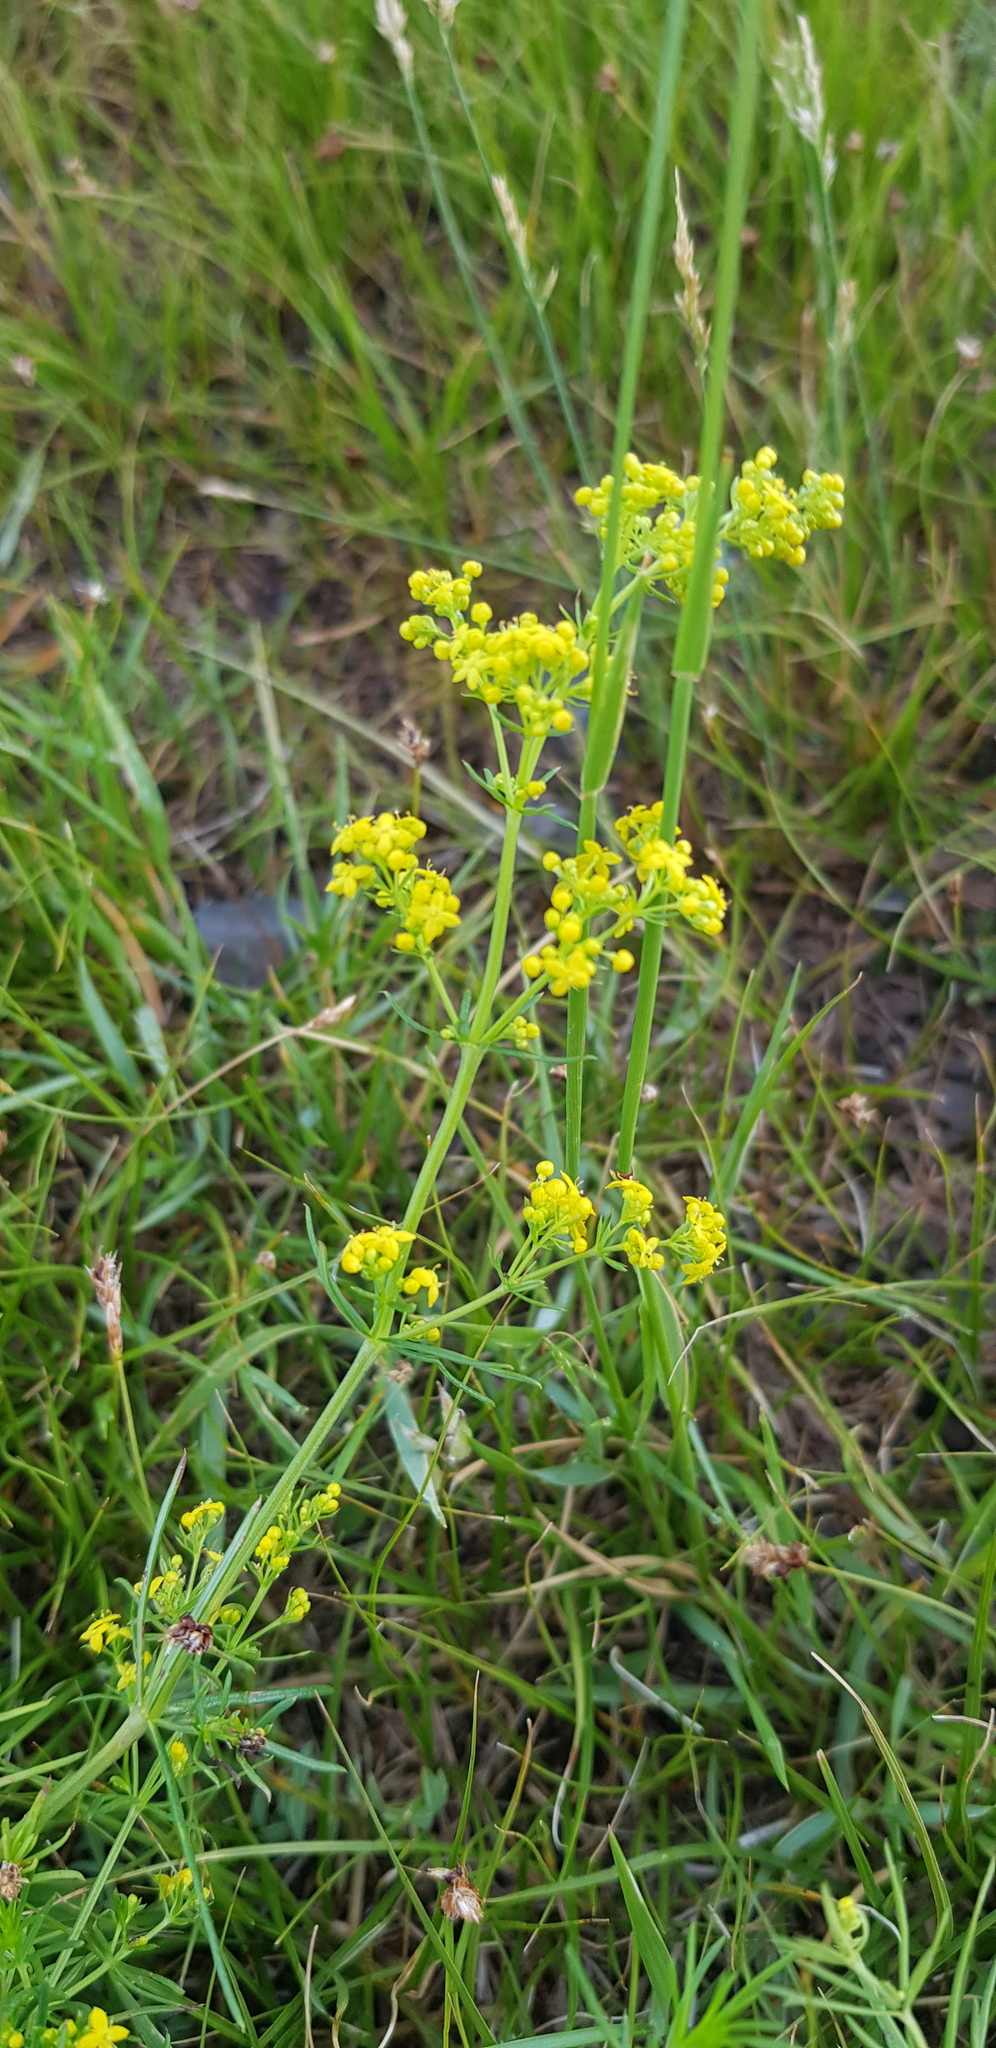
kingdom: Plantae
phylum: Tracheophyta
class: Magnoliopsida
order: Gentianales
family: Rubiaceae
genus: Galium
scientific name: Galium verum
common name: Lady's bedstraw
